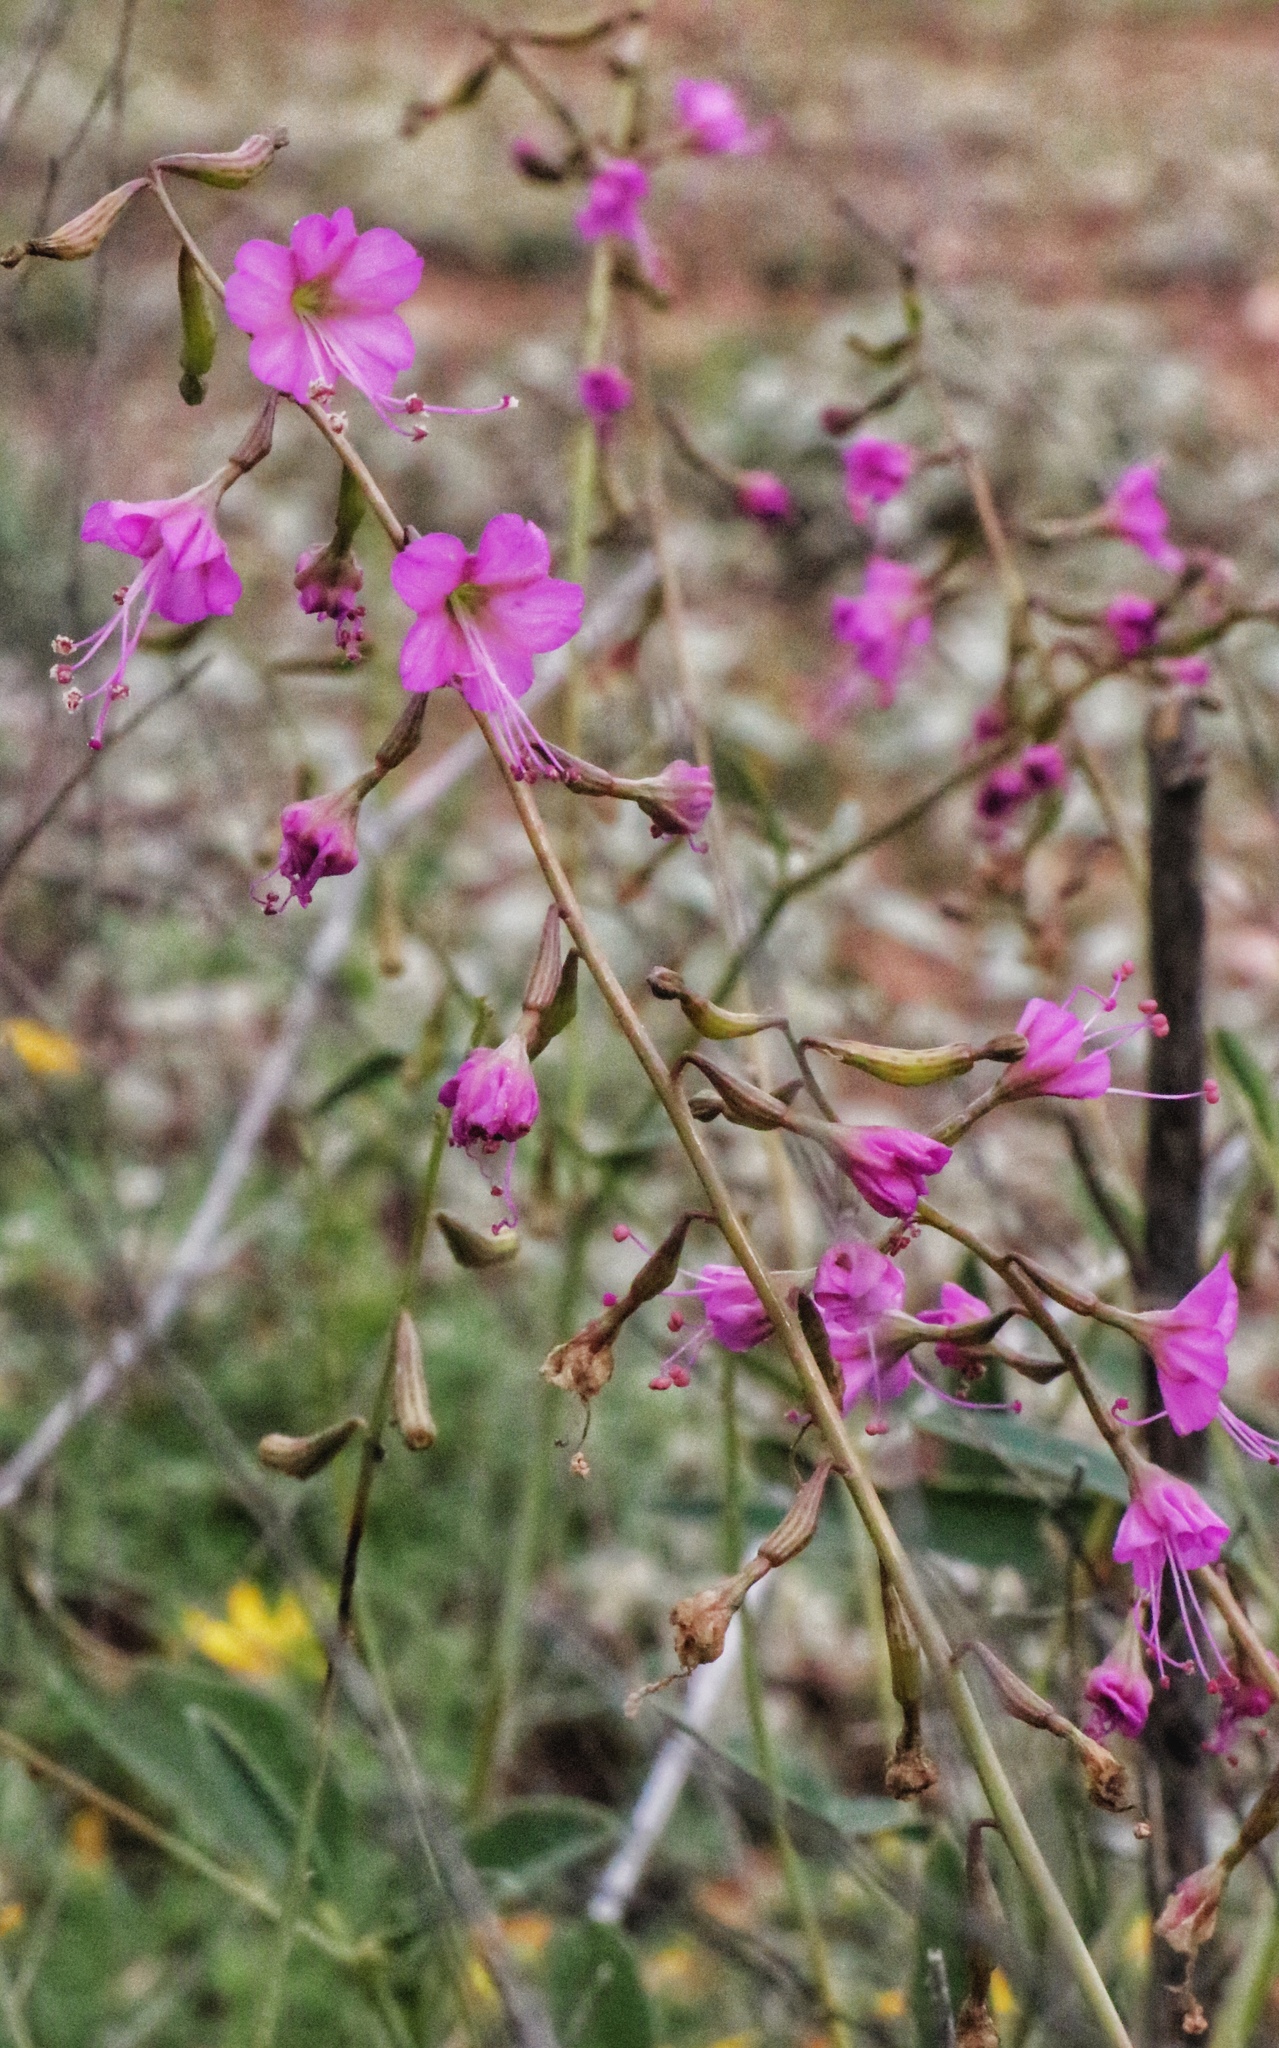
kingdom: Plantae
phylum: Tracheophyta
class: Magnoliopsida
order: Caryophyllales
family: Nyctaginaceae
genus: Cyphomeris
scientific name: Cyphomeris gypsophiloides
